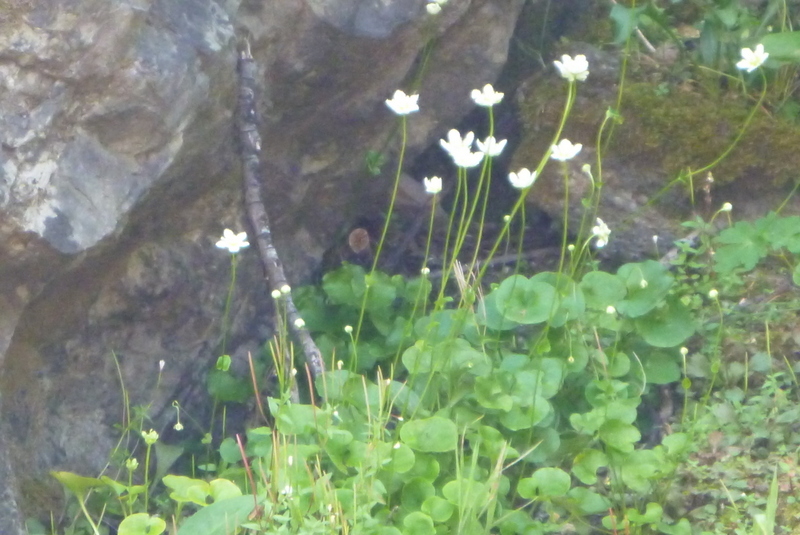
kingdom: Plantae
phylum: Tracheophyta
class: Magnoliopsida
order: Celastrales
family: Parnassiaceae
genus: Parnassia
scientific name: Parnassia fimbriata
